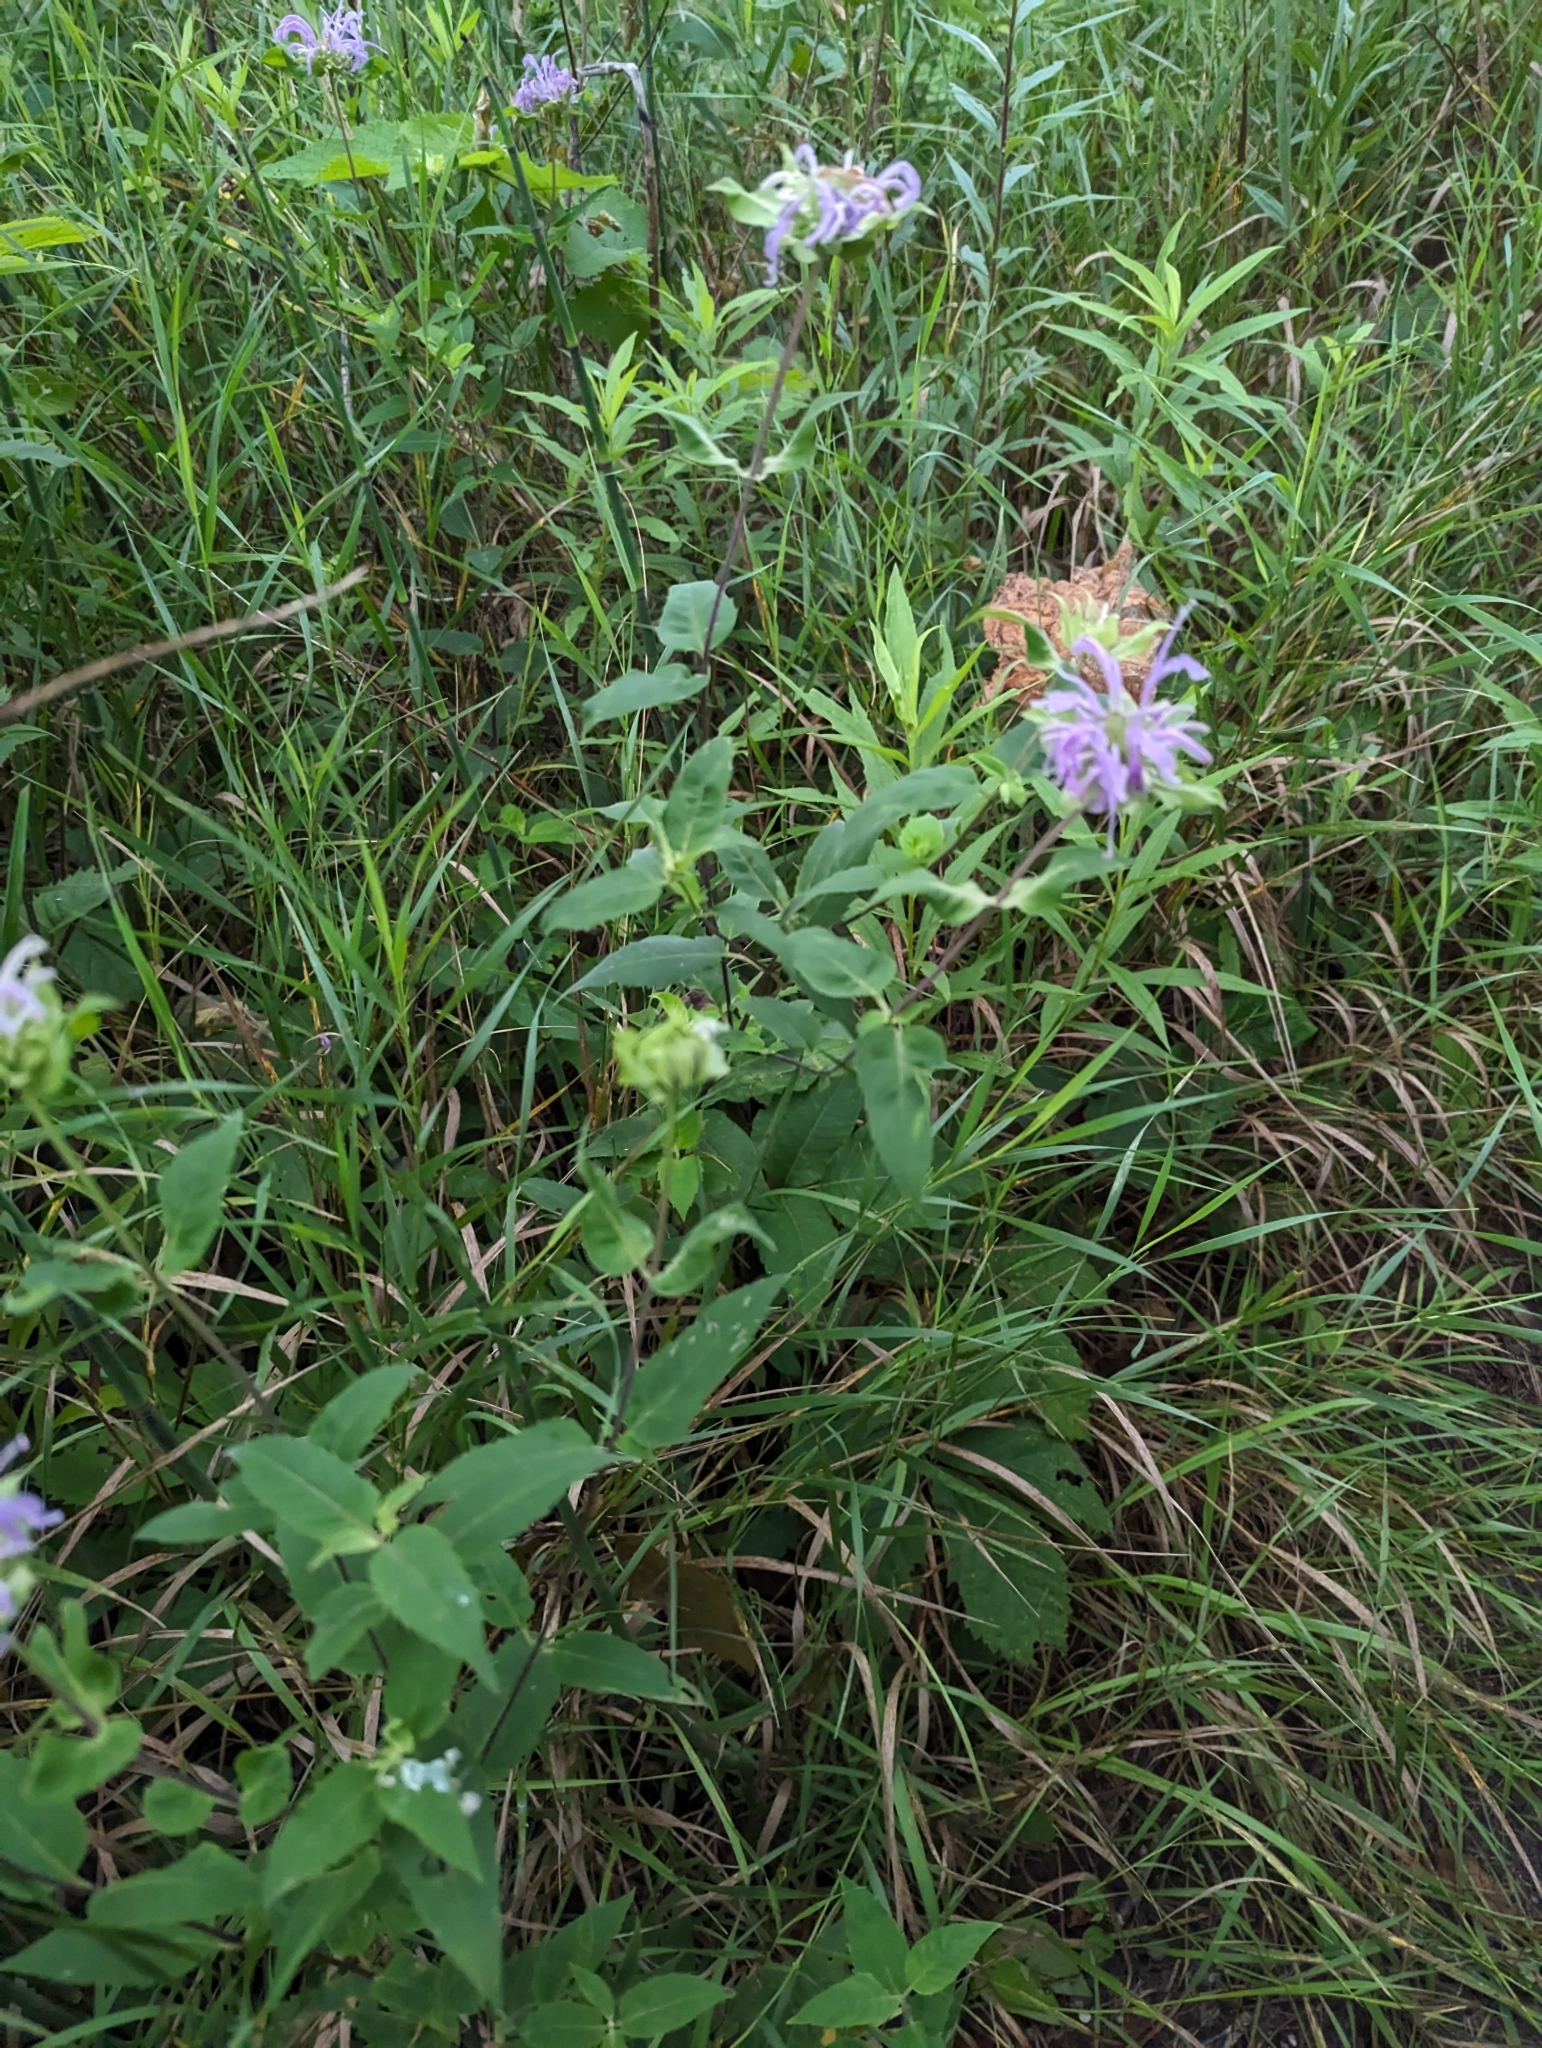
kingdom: Plantae
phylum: Tracheophyta
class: Magnoliopsida
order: Lamiales
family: Lamiaceae
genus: Monarda
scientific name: Monarda fistulosa
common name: Purple beebalm
